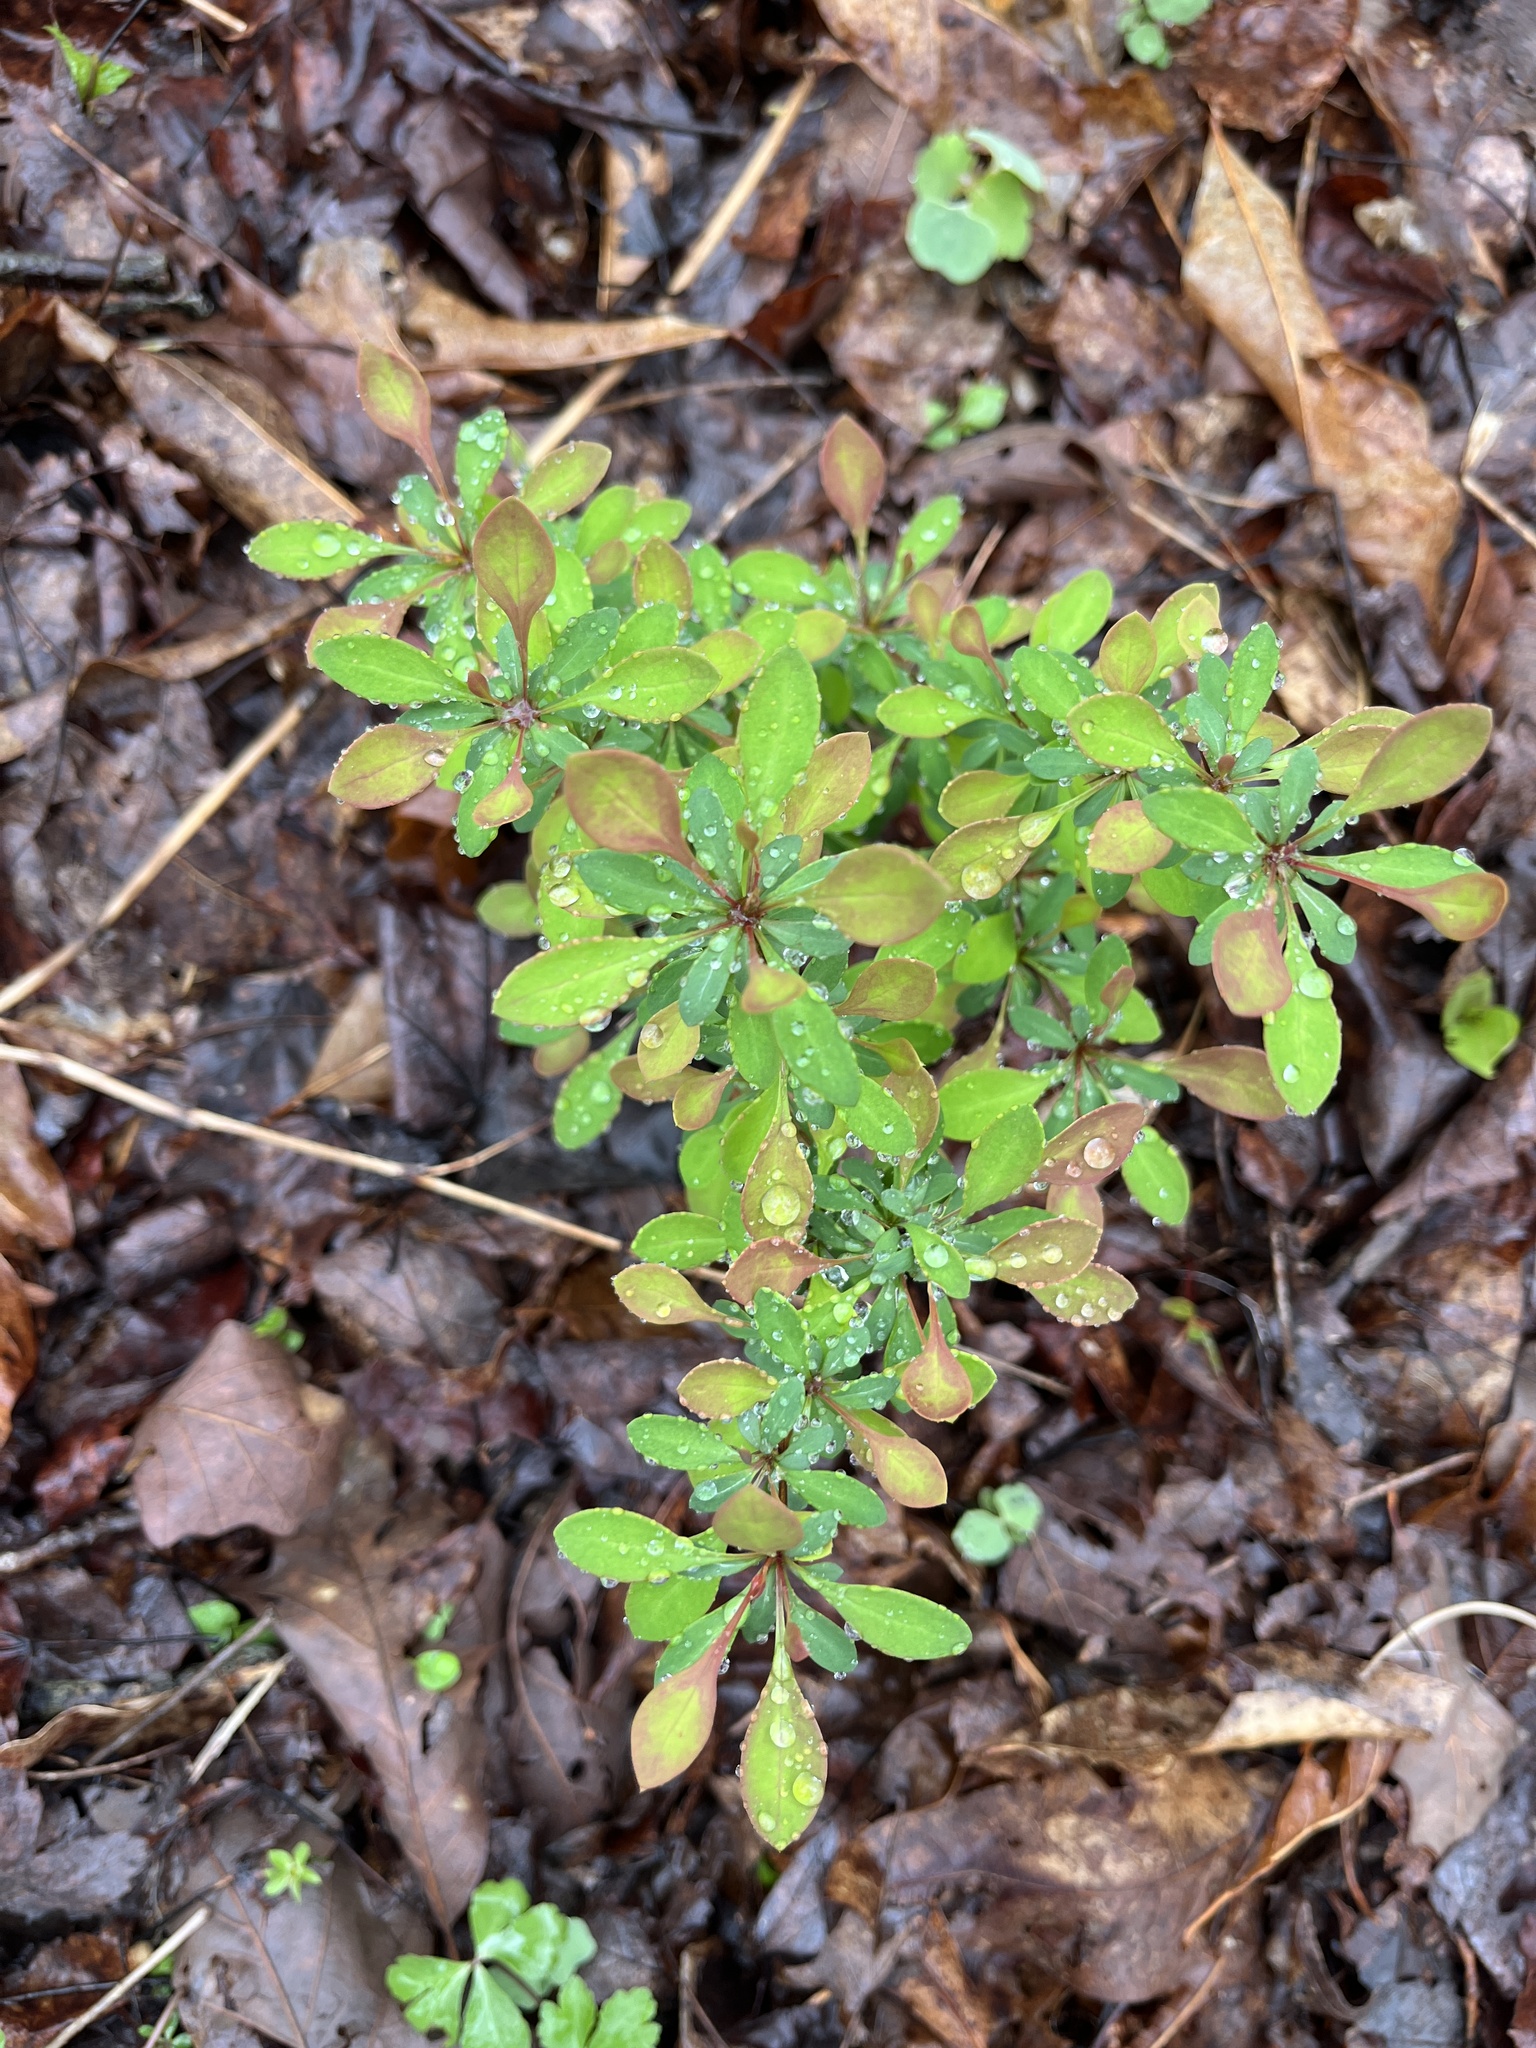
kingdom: Plantae
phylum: Tracheophyta
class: Magnoliopsida
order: Ranunculales
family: Berberidaceae
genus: Berberis
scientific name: Berberis thunbergii
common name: Japanese barberry
